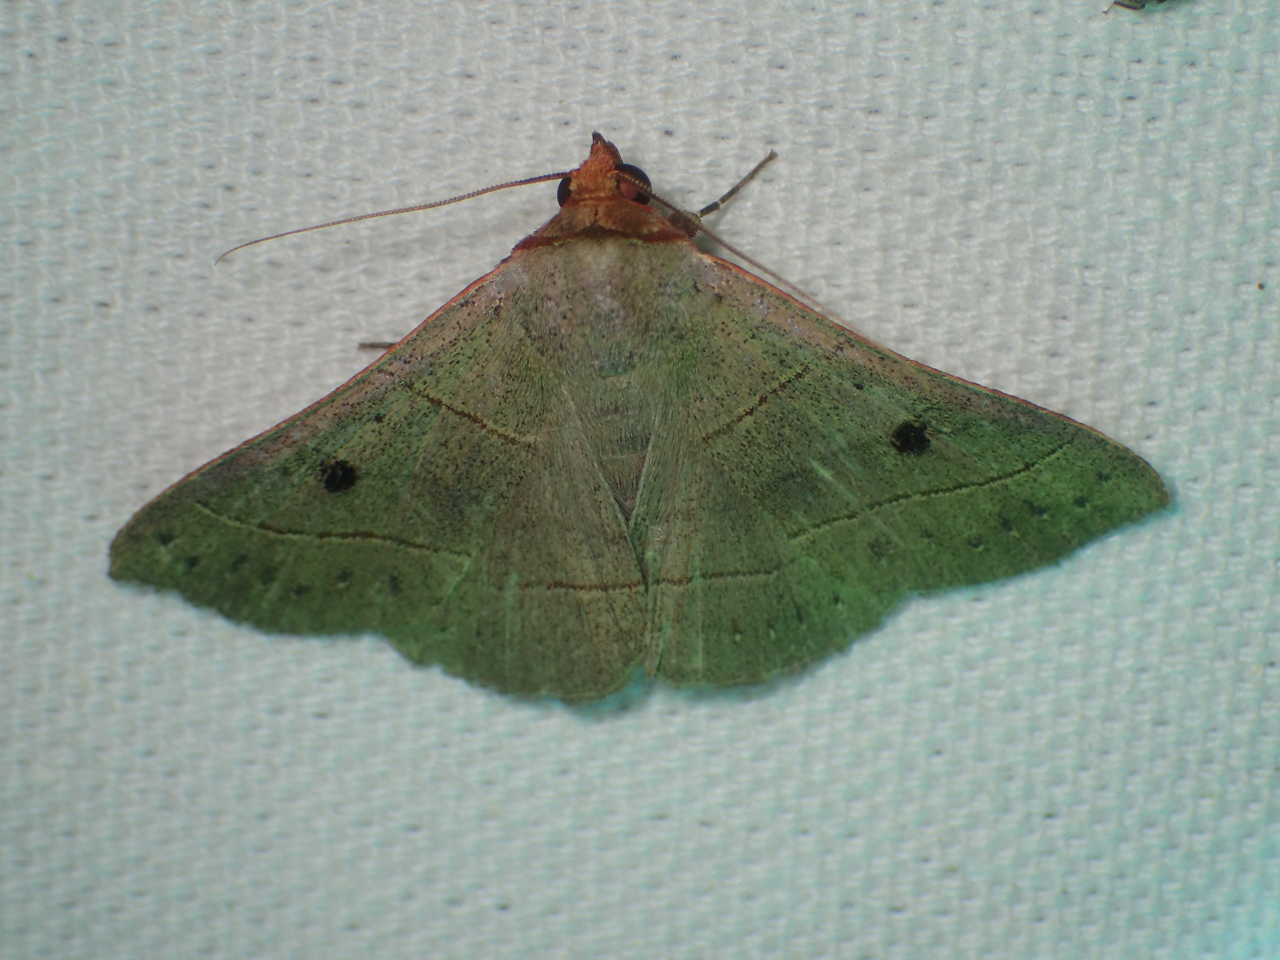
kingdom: Animalia
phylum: Arthropoda
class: Insecta
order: Lepidoptera
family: Erebidae
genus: Panopoda
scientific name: Panopoda rufimargo
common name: Red-lined panopoda moth
